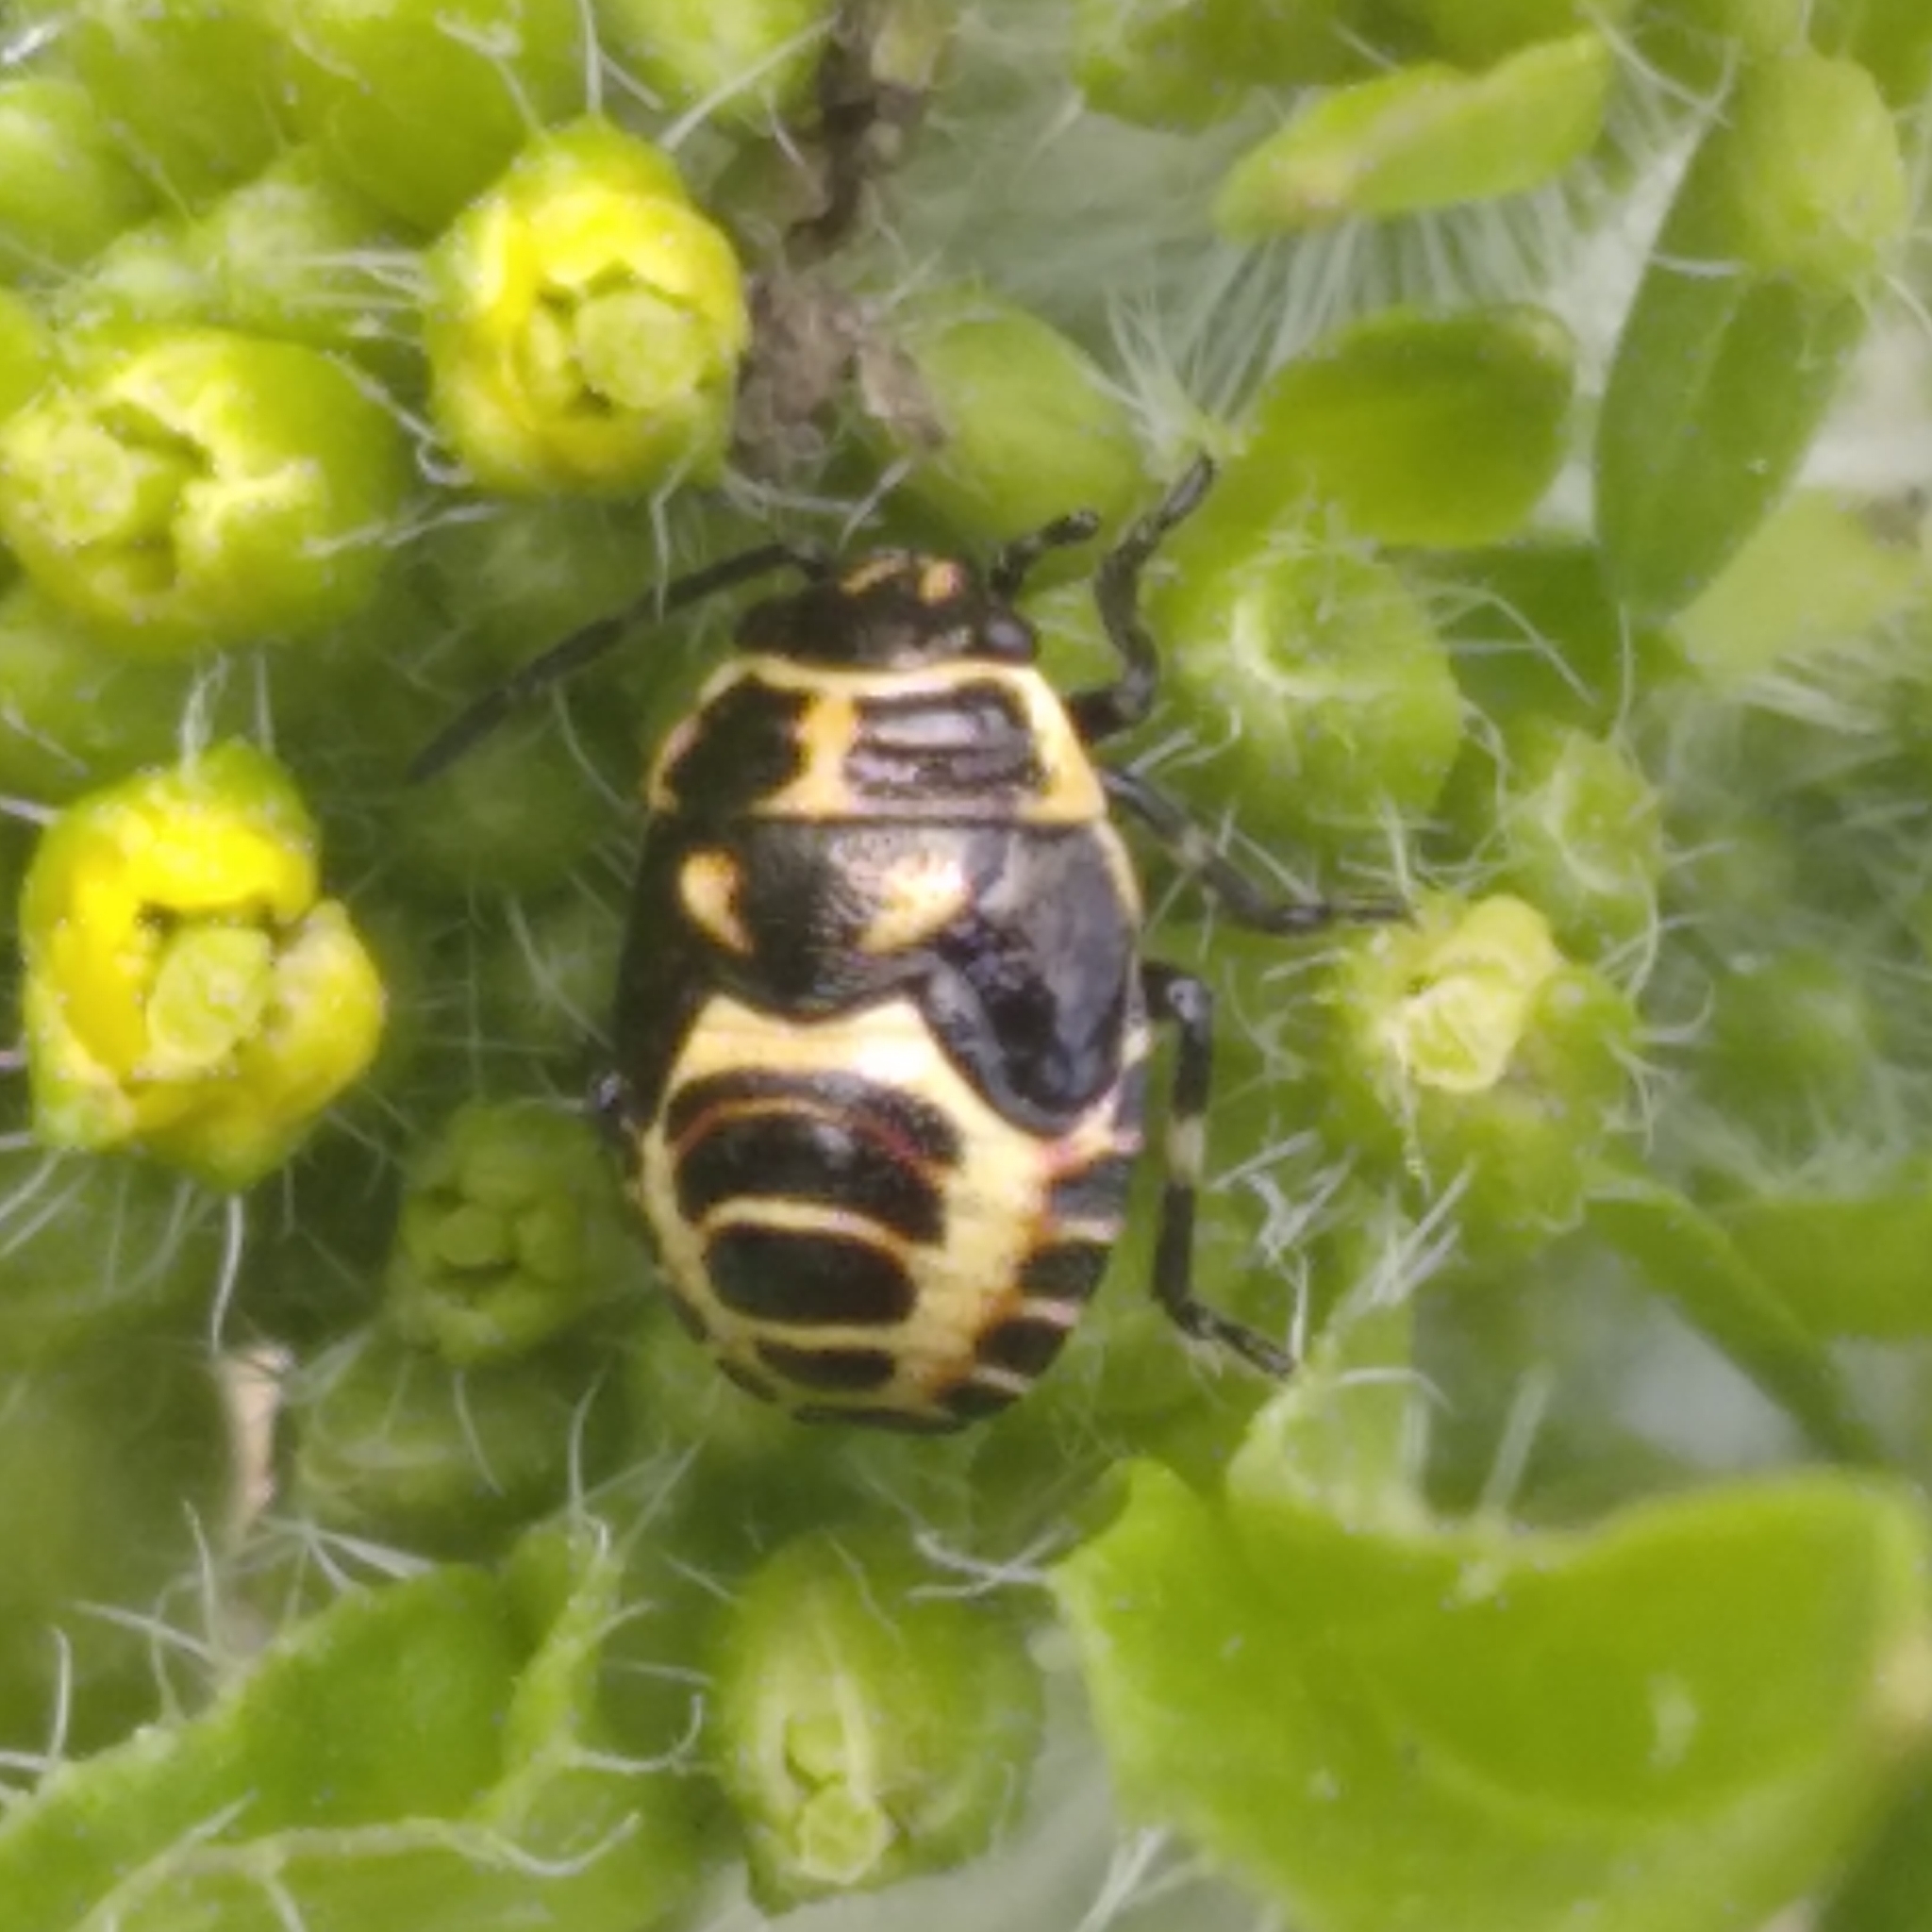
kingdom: Animalia
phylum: Arthropoda
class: Insecta
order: Hemiptera
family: Pentatomidae
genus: Eurydema
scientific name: Eurydema oleracea
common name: Cabbage bug
